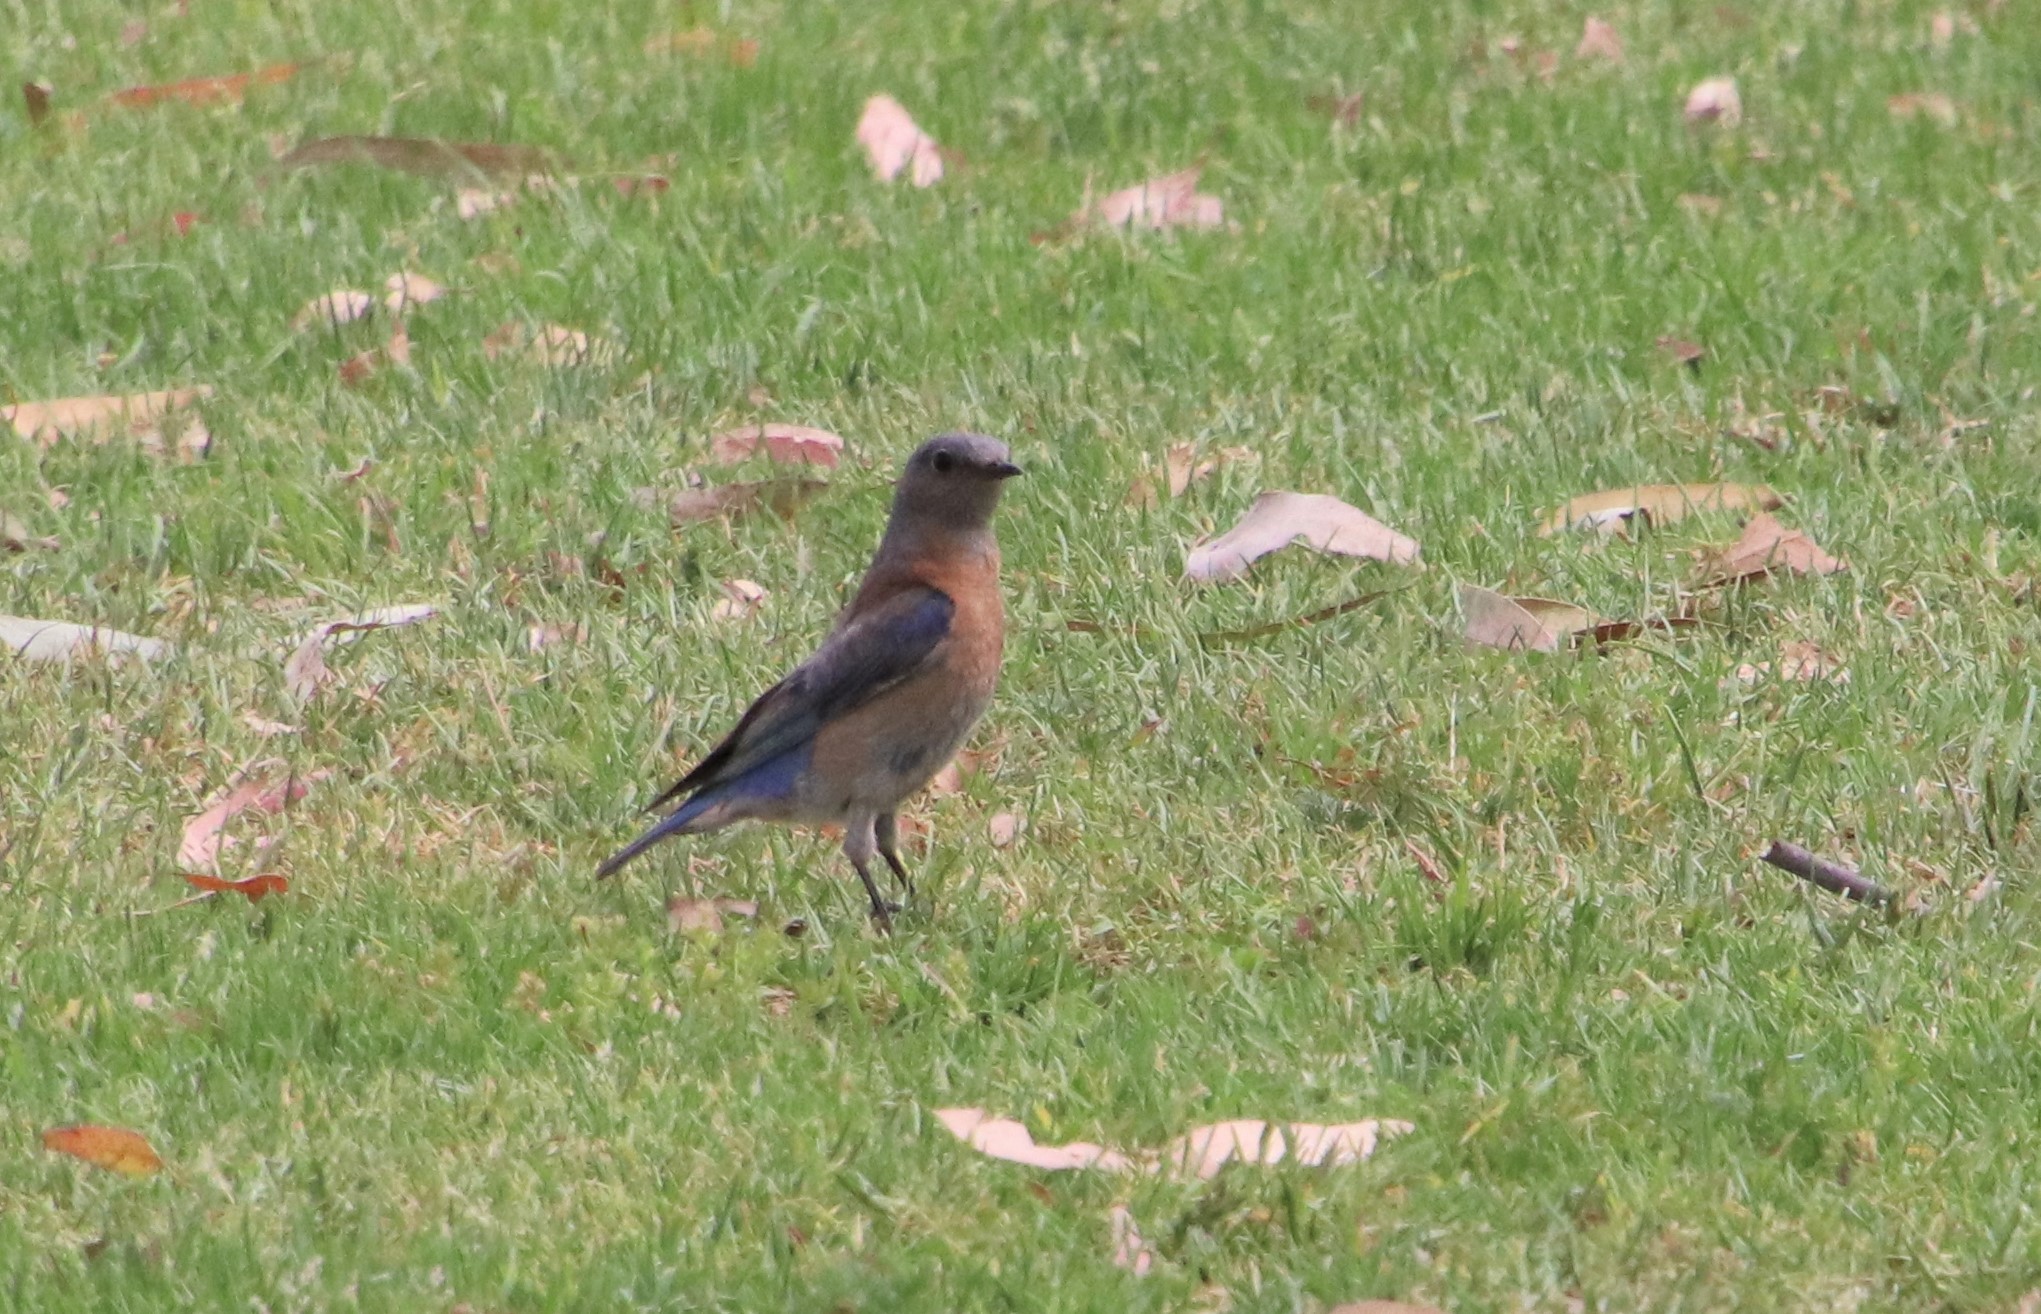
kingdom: Animalia
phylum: Chordata
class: Aves
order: Passeriformes
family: Turdidae
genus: Sialia
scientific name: Sialia mexicana
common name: Western bluebird
